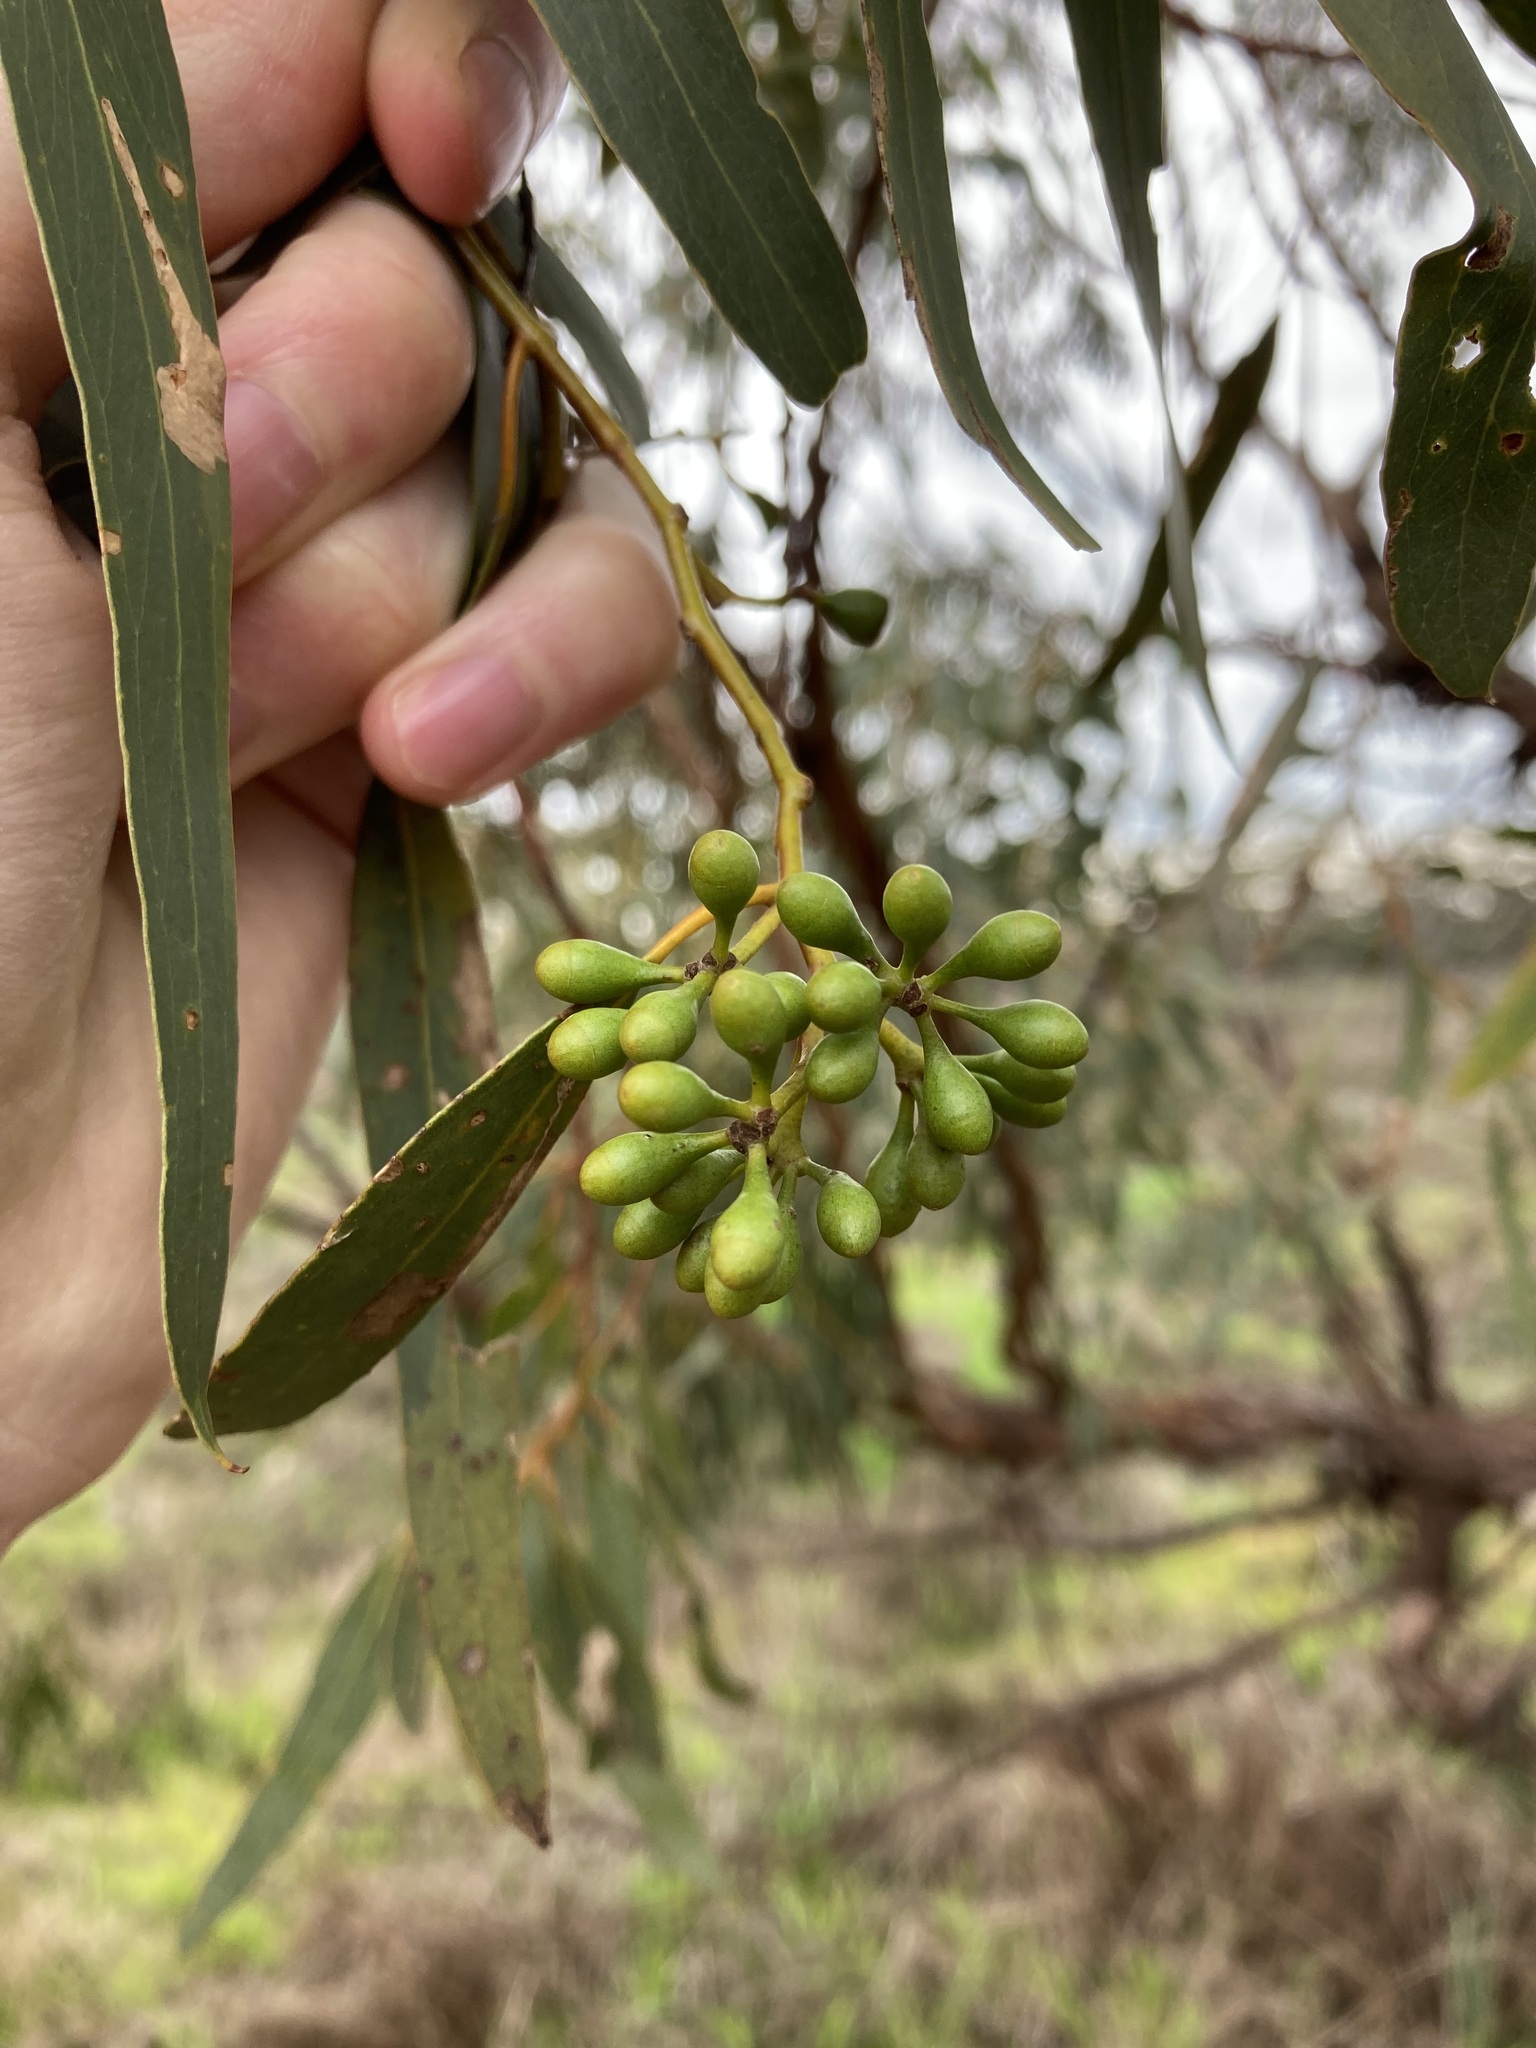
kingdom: Plantae
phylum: Tracheophyta
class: Magnoliopsida
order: Myrtales
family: Myrtaceae
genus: Eucalyptus
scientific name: Eucalyptus loxophleba
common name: York gum
